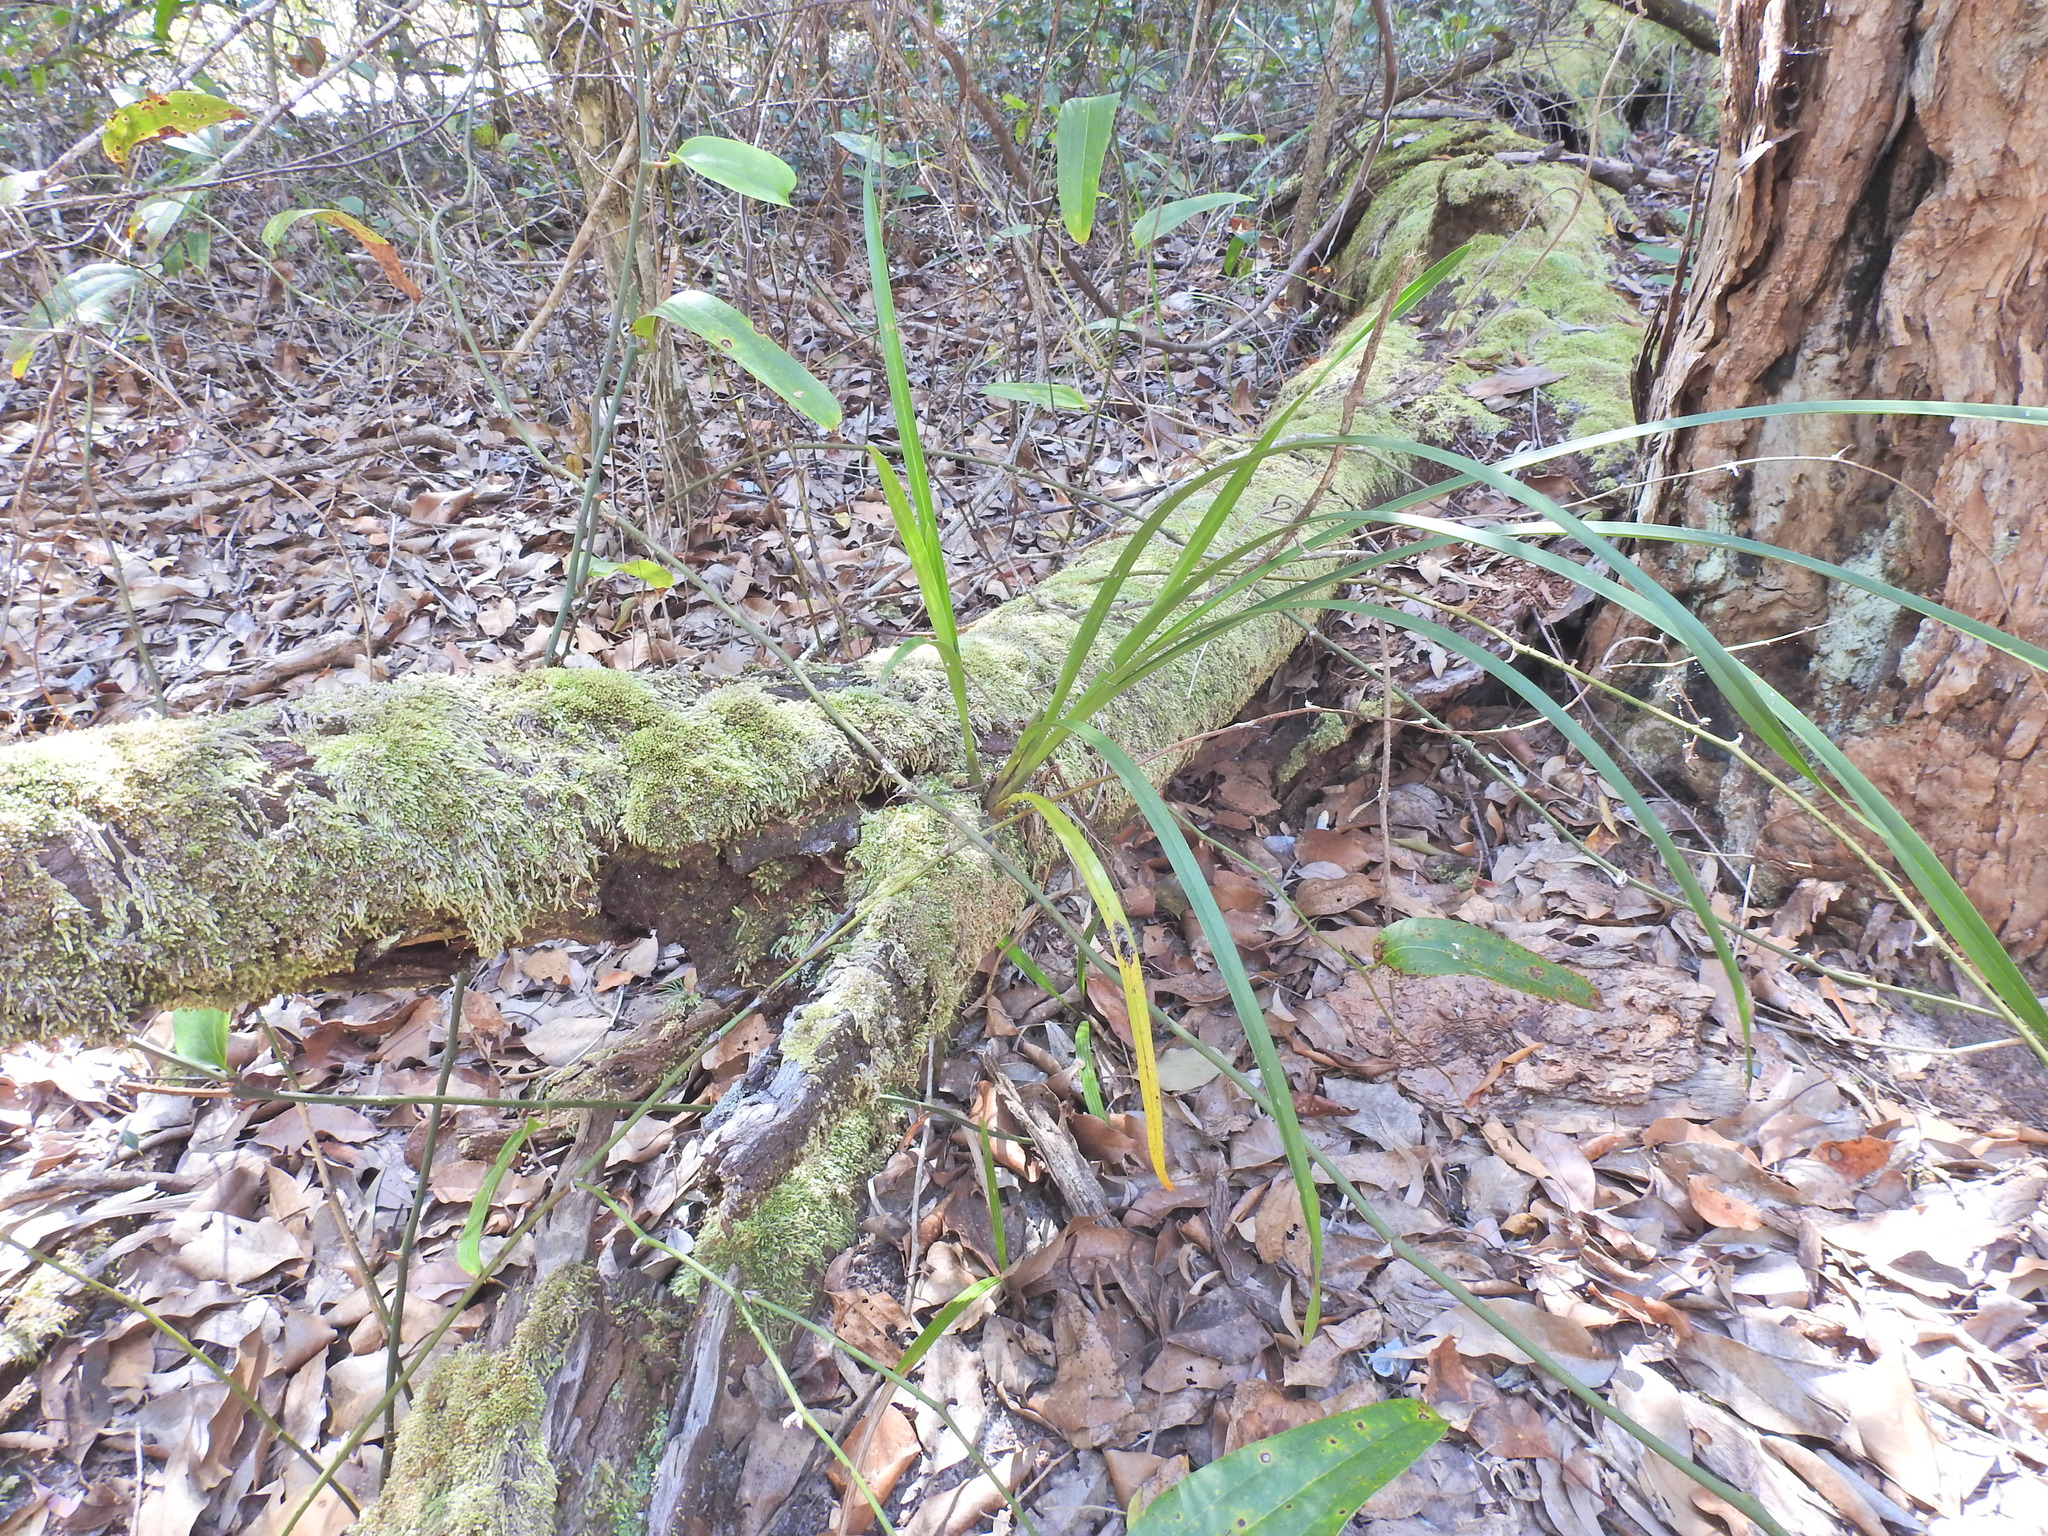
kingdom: Plantae
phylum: Tracheophyta
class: Liliopsida
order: Asparagales
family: Orchidaceae
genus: Cymbidium
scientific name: Cymbidium suave
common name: Snake orchid
